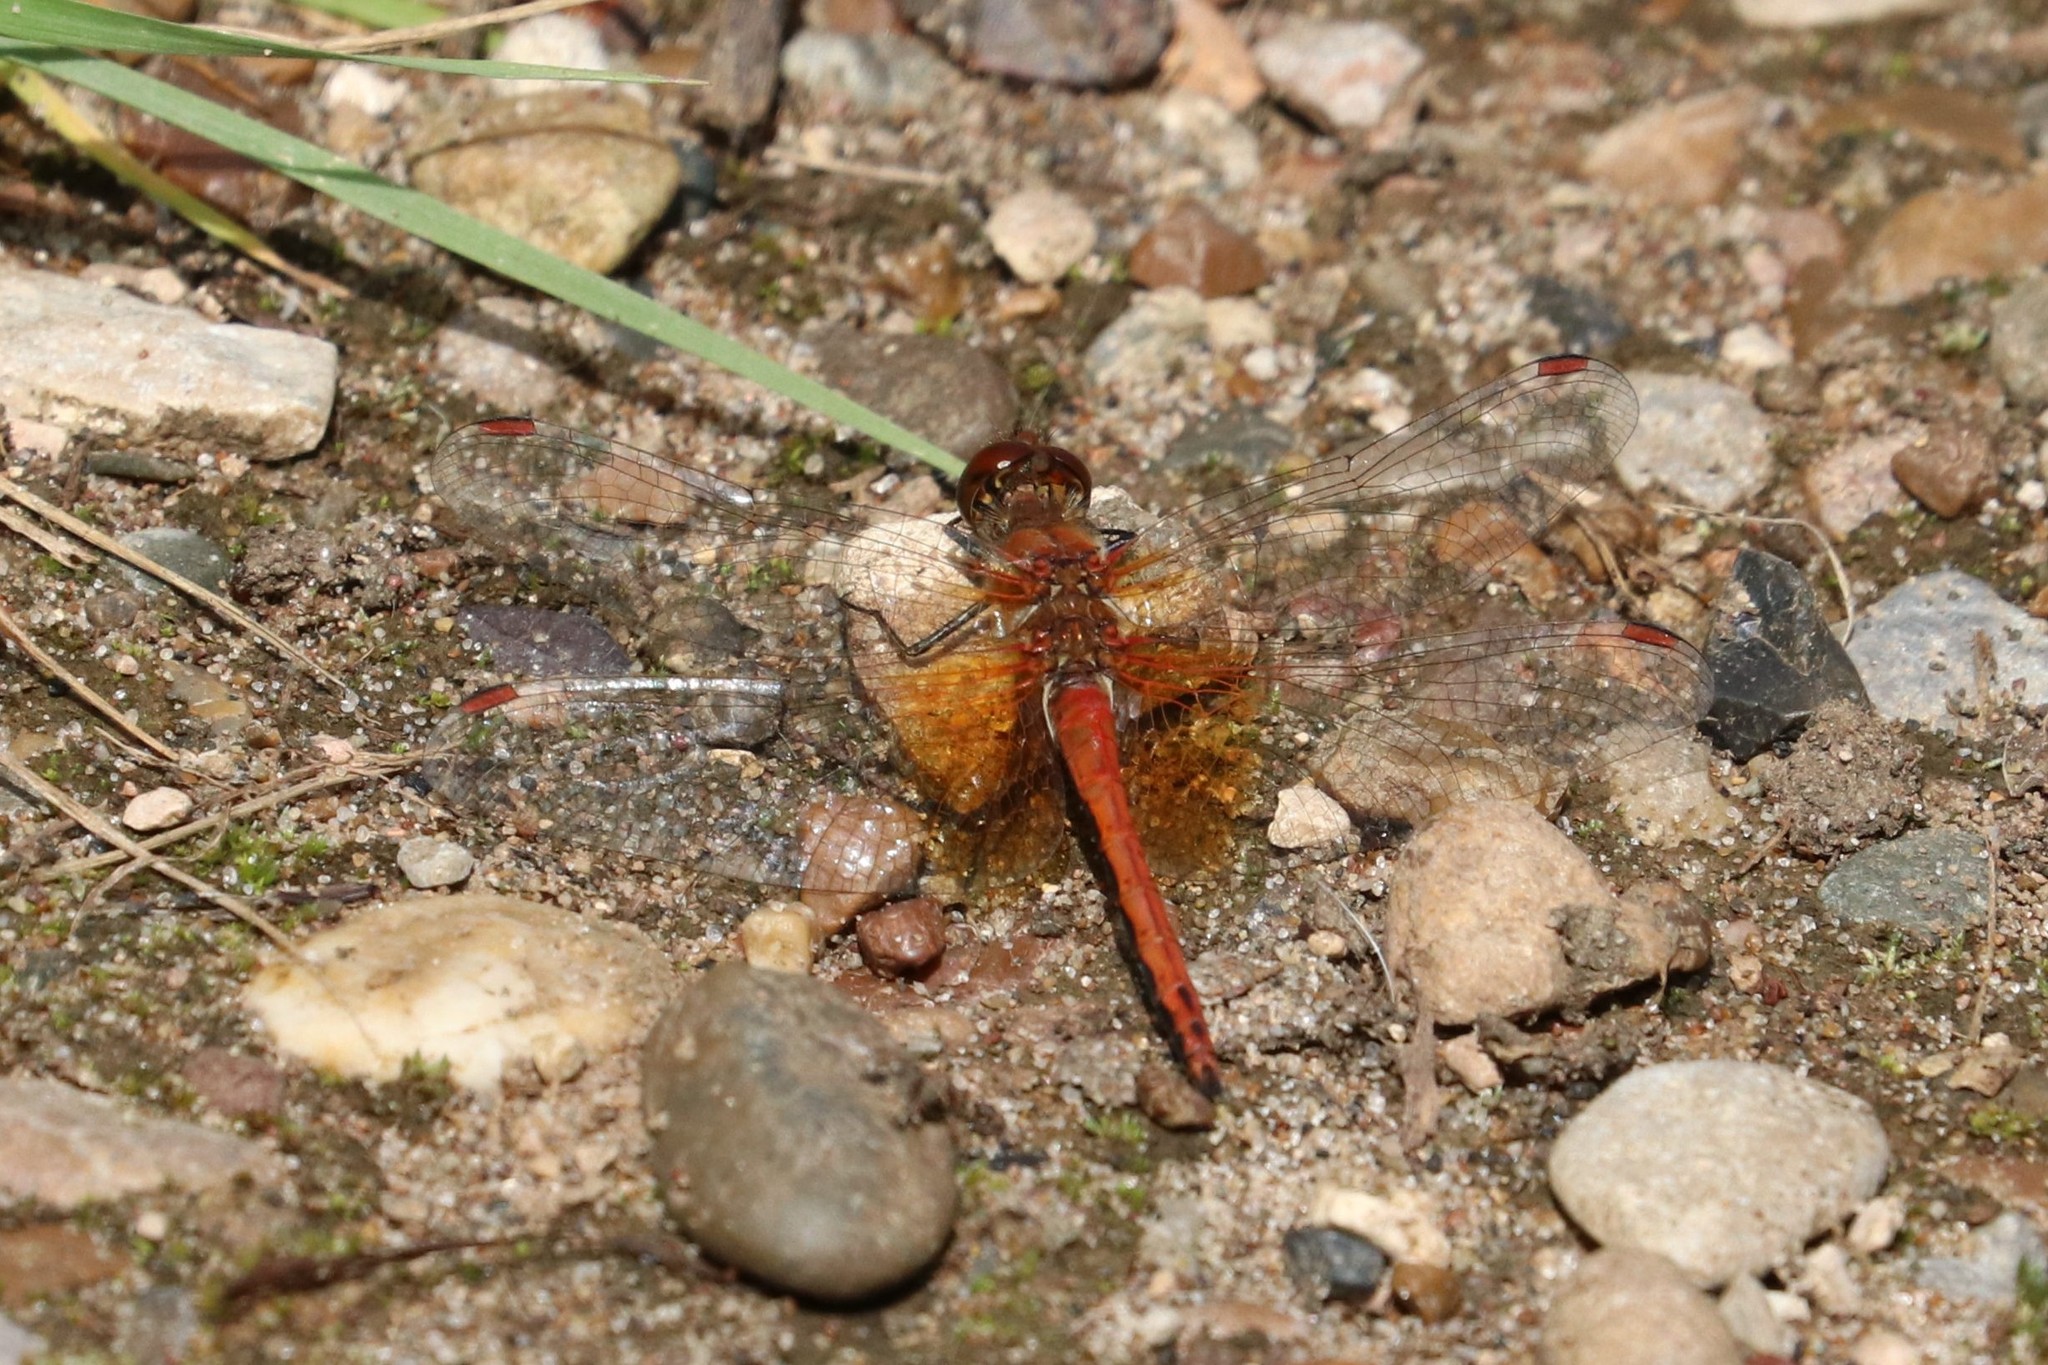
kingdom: Animalia
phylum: Arthropoda
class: Insecta
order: Odonata
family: Libellulidae
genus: Sympetrum
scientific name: Sympetrum flaveolum
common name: Yellow-winged darter
